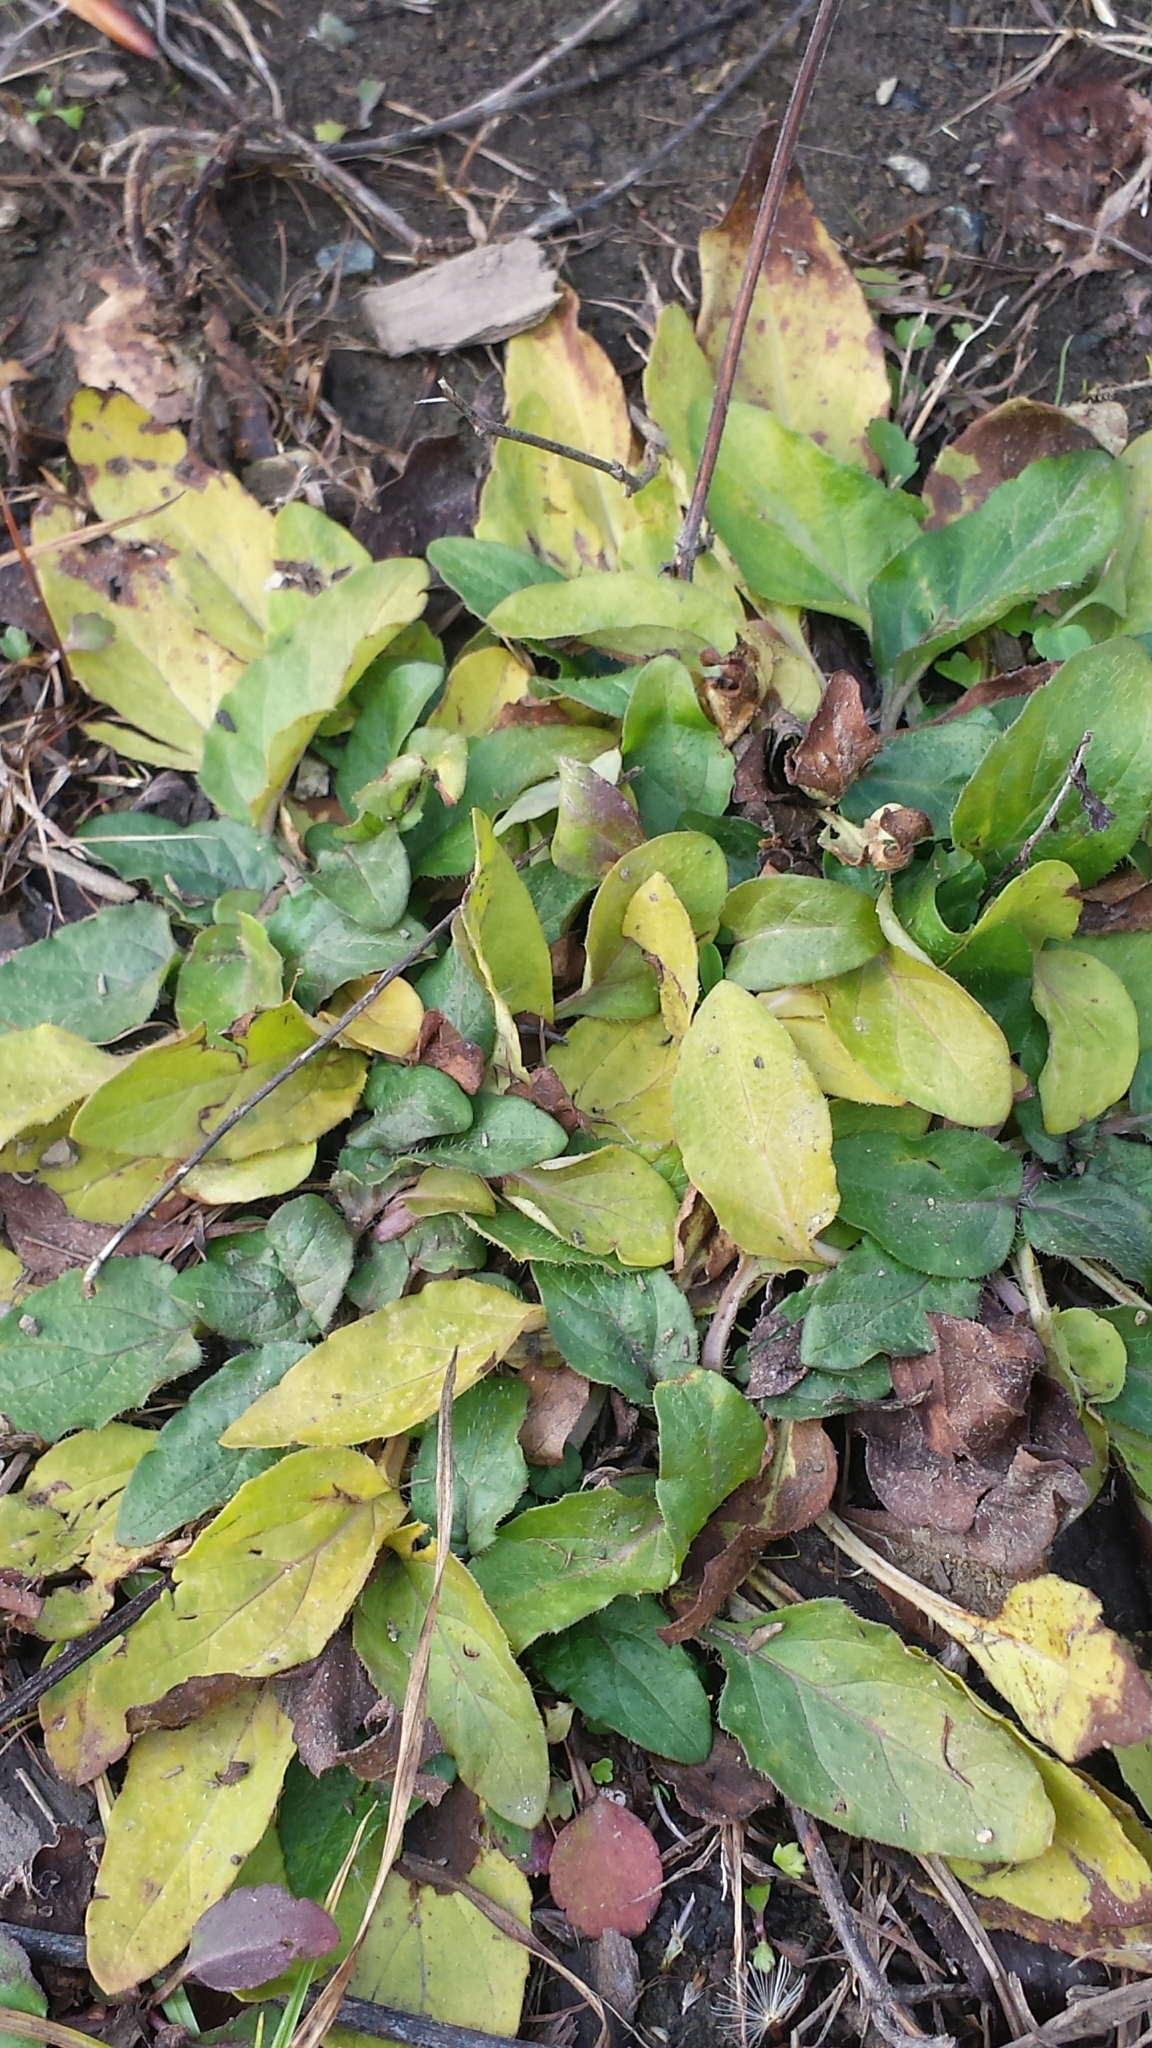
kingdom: Plantae
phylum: Tracheophyta
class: Magnoliopsida
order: Lamiales
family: Lamiaceae
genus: Prunella
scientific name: Prunella vulgaris
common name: Heal-all
